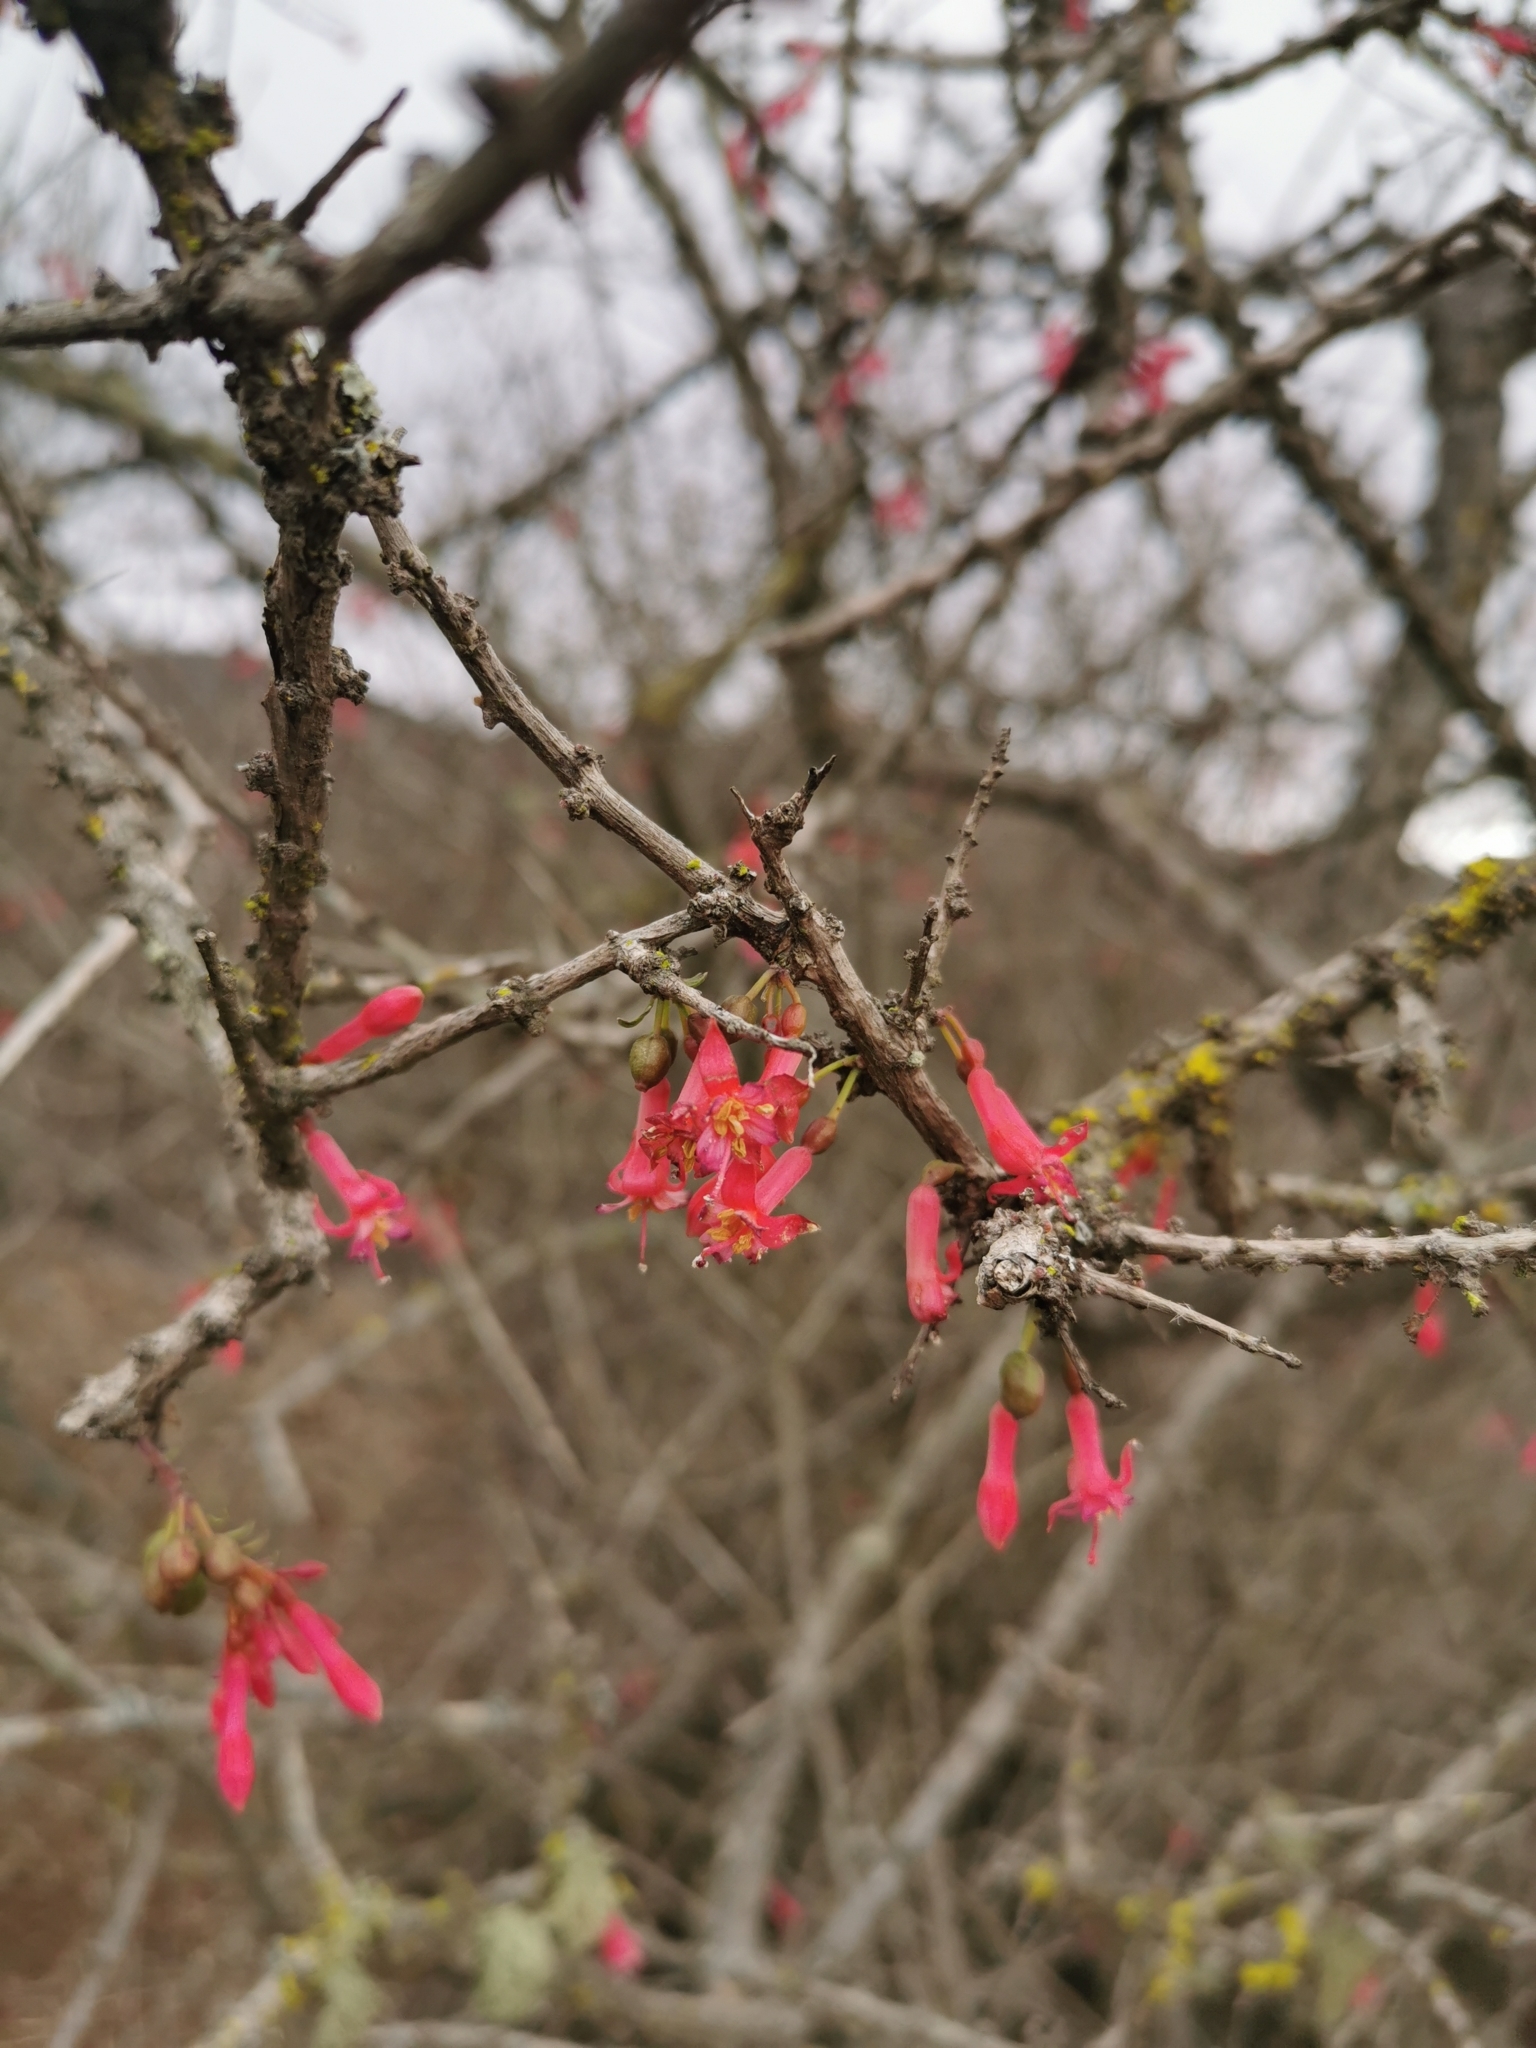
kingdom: Plantae
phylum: Tracheophyta
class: Magnoliopsida
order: Myrtales
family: Onagraceae
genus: Fuchsia
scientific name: Fuchsia lycioides
